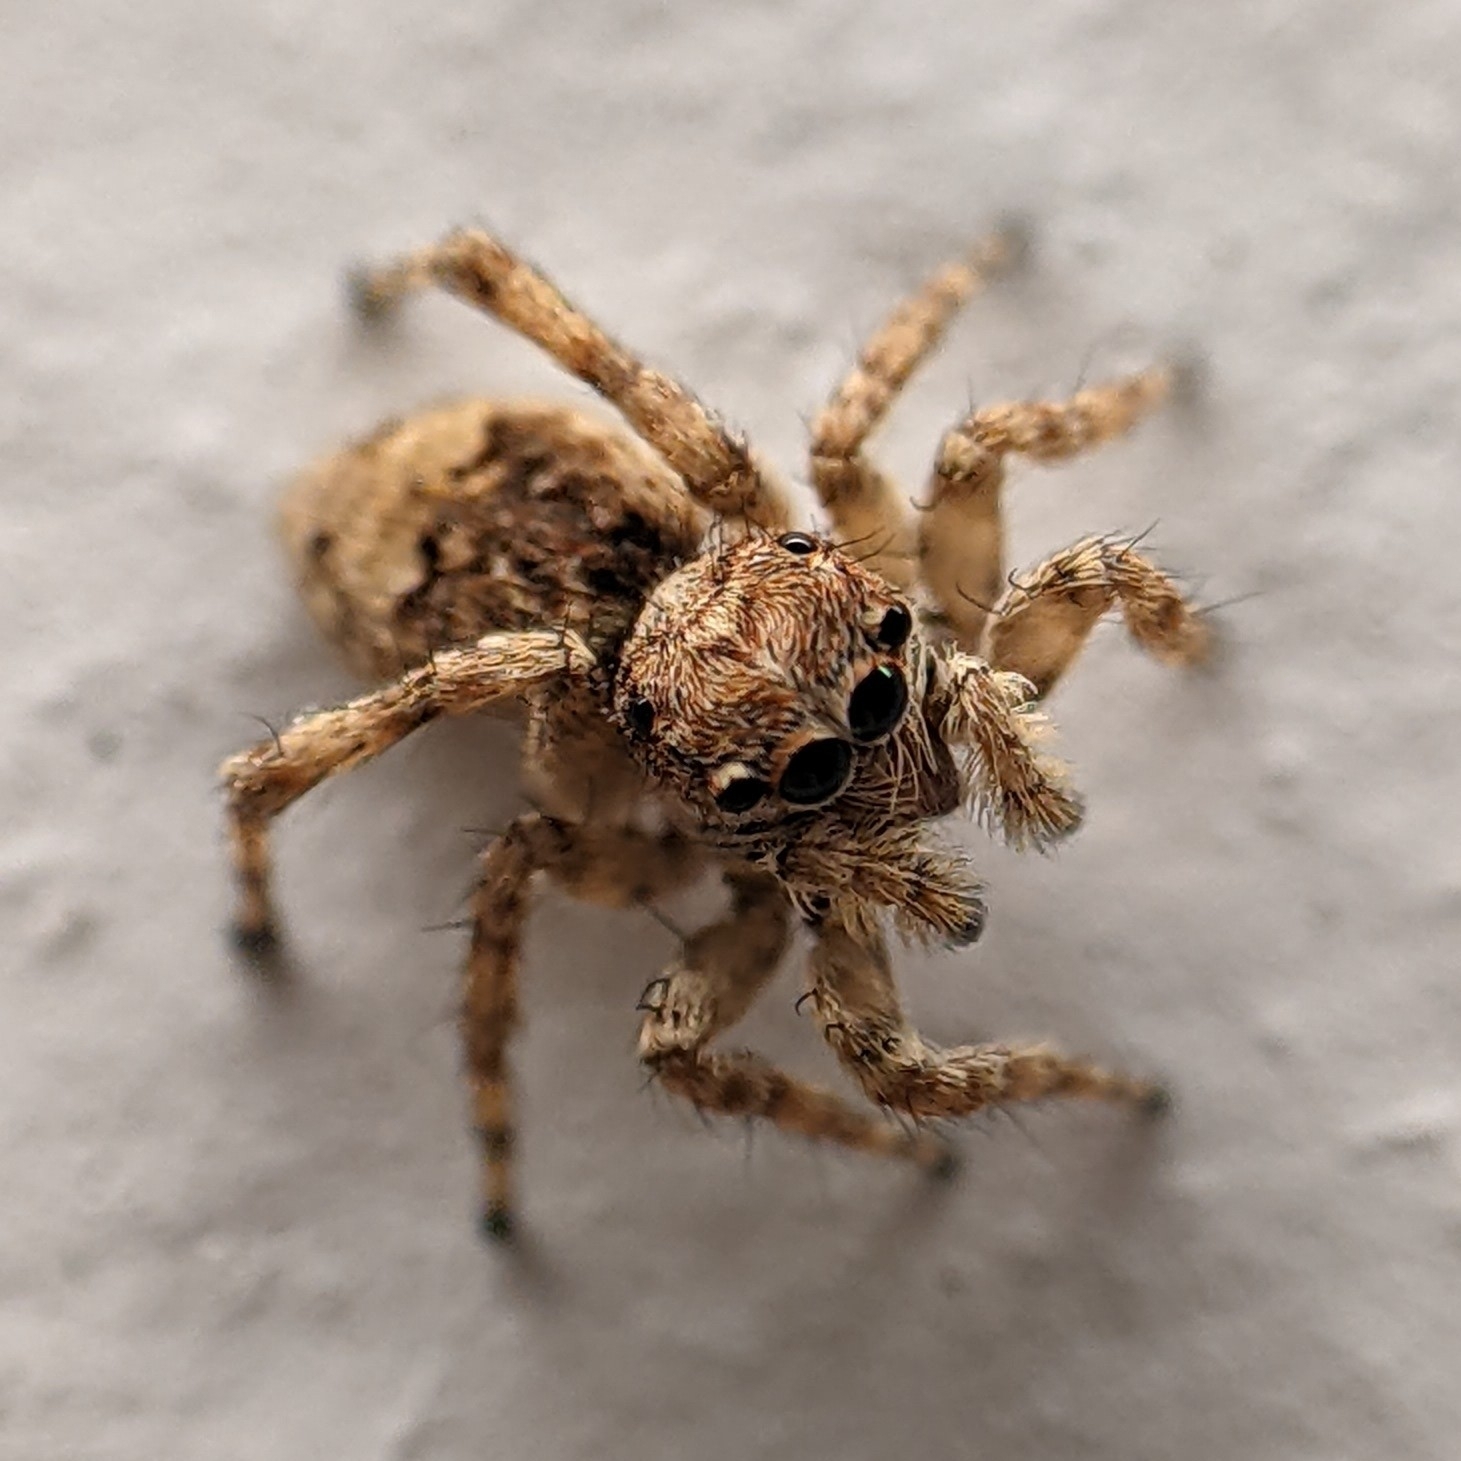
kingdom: Animalia
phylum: Arthropoda
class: Arachnida
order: Araneae
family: Salticidae
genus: Attulus
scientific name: Attulus fasciger
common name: Asiatic wall jumping spider
